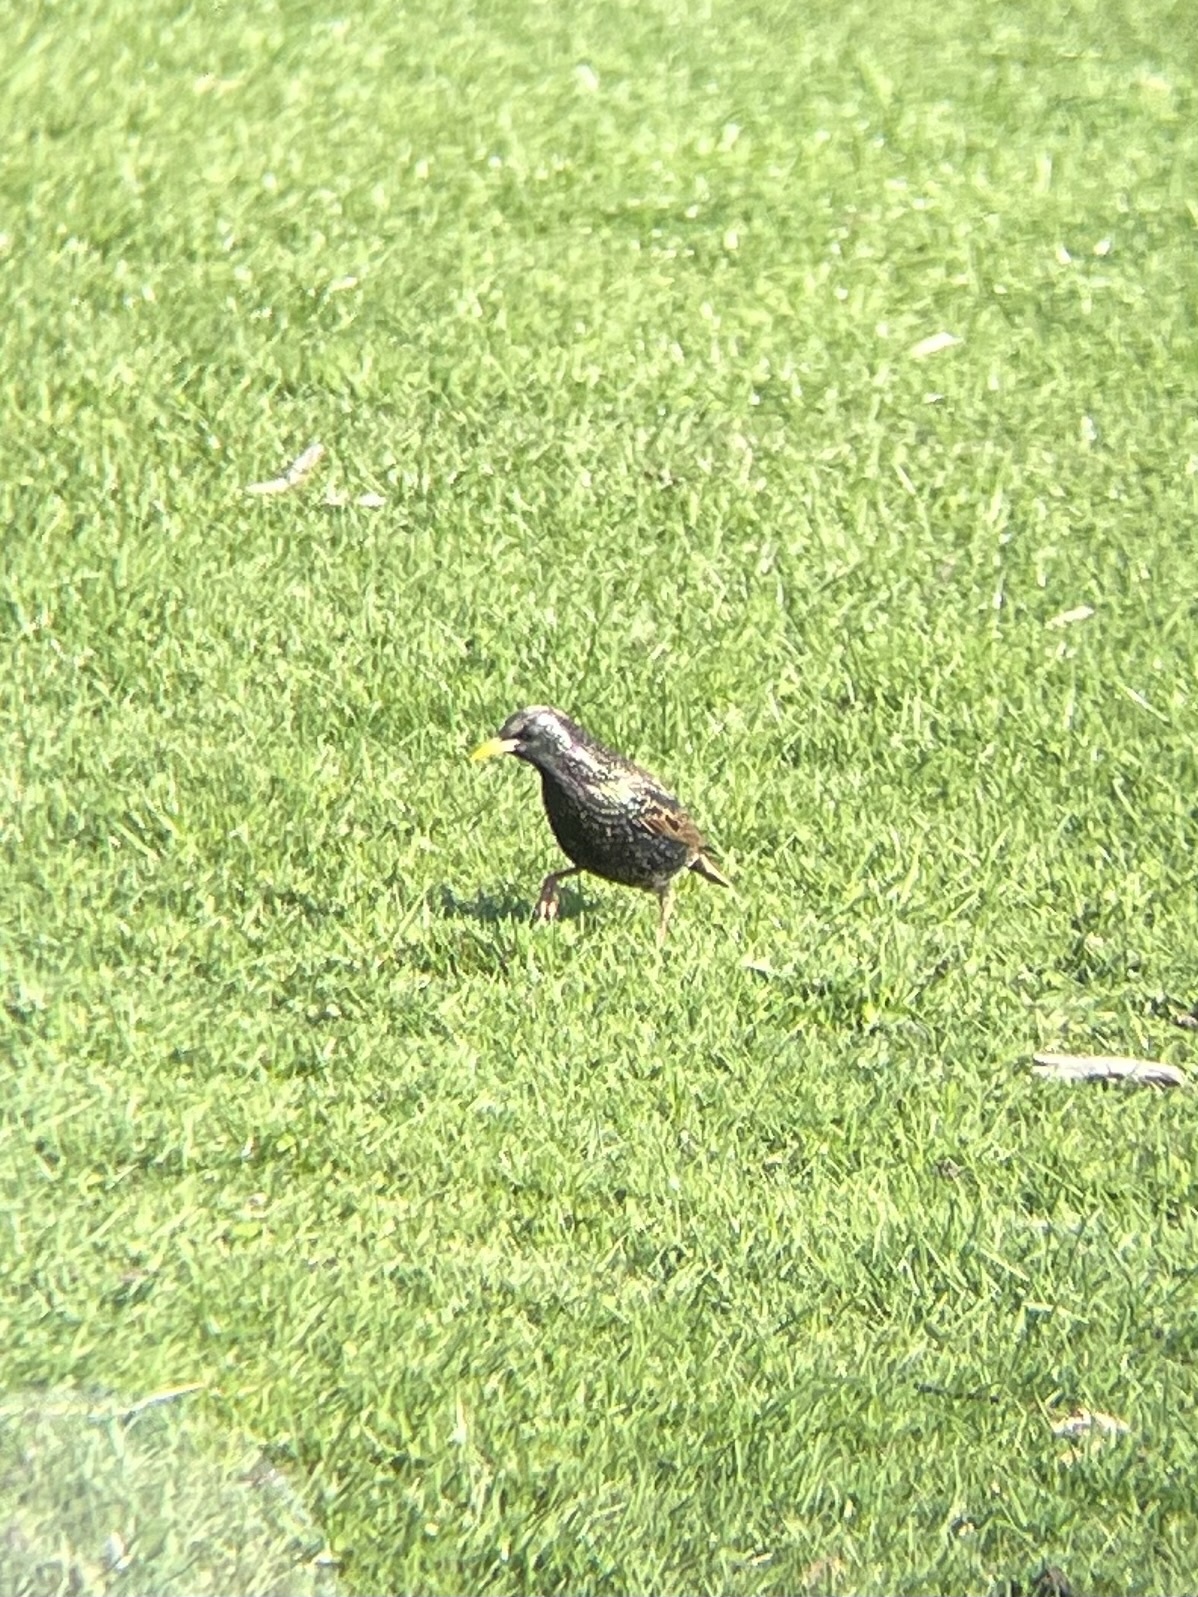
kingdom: Animalia
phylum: Chordata
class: Aves
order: Passeriformes
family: Sturnidae
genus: Sturnus
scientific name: Sturnus vulgaris
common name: Common starling
